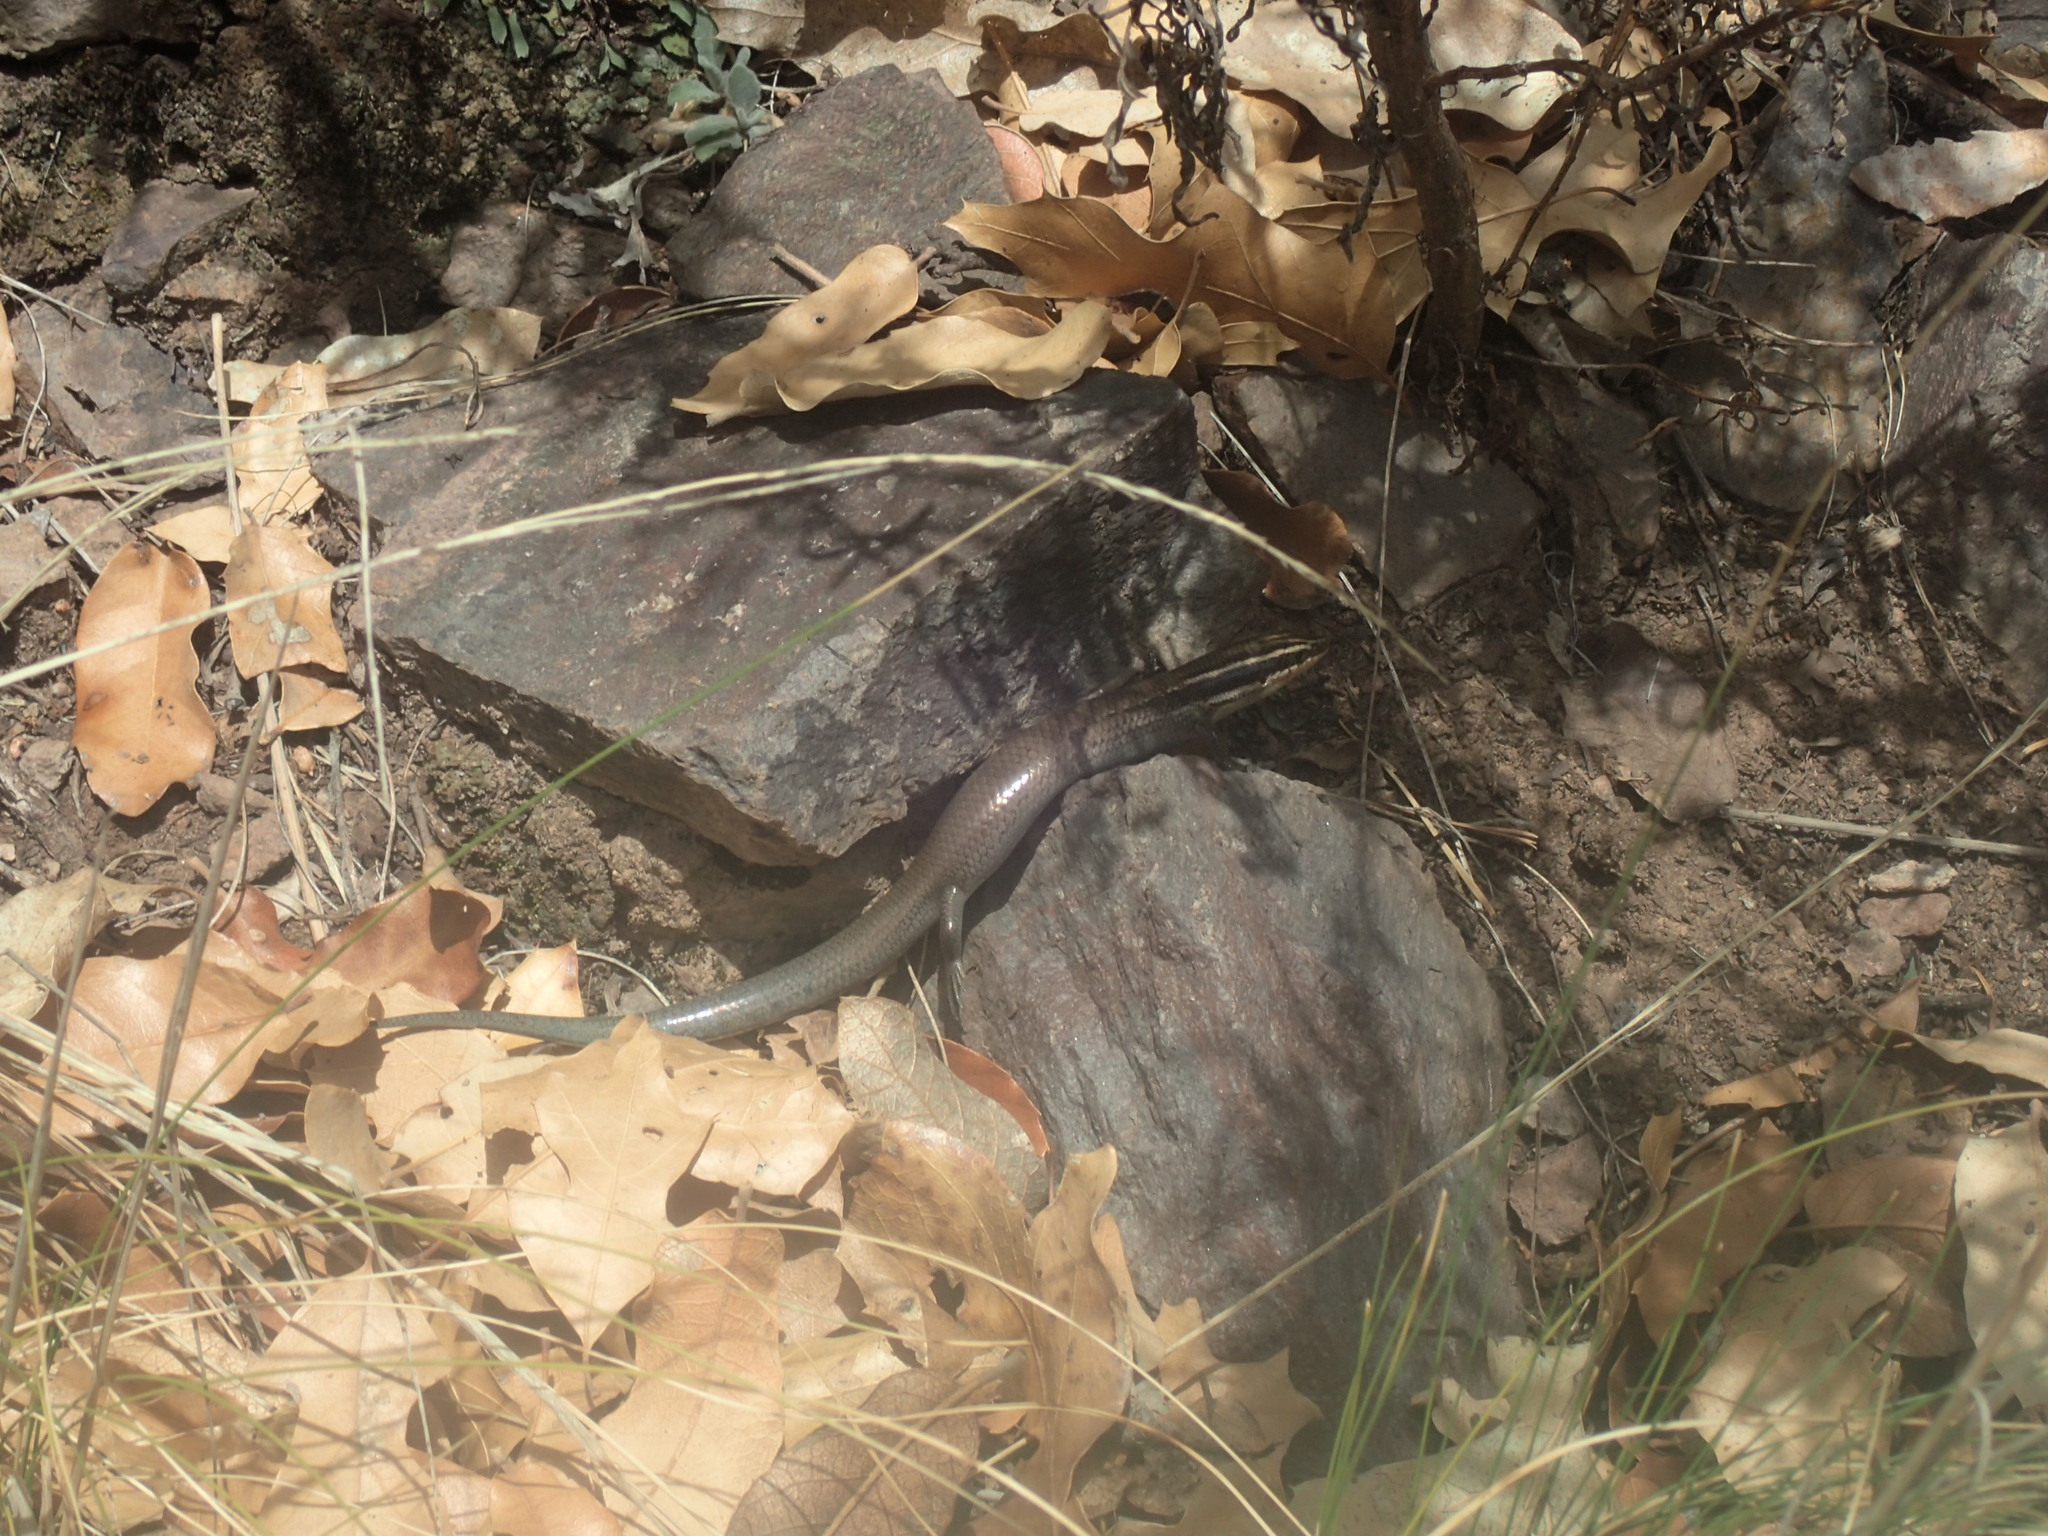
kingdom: Animalia
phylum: Chordata
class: Squamata
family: Scincidae
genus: Plestiodon
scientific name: Plestiodon tetragrammus
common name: Four-lined skink
